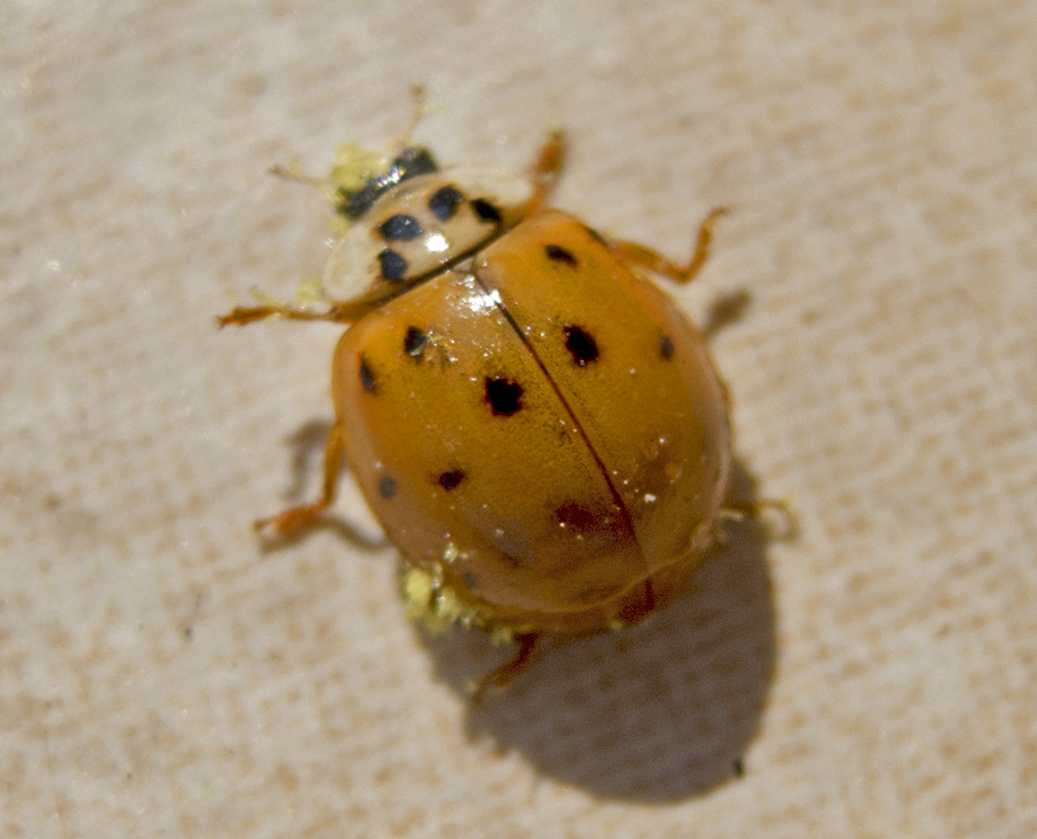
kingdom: Animalia
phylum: Arthropoda
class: Insecta
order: Coleoptera
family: Coccinellidae
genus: Harmonia
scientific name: Harmonia axyridis
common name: Harlequin ladybird
